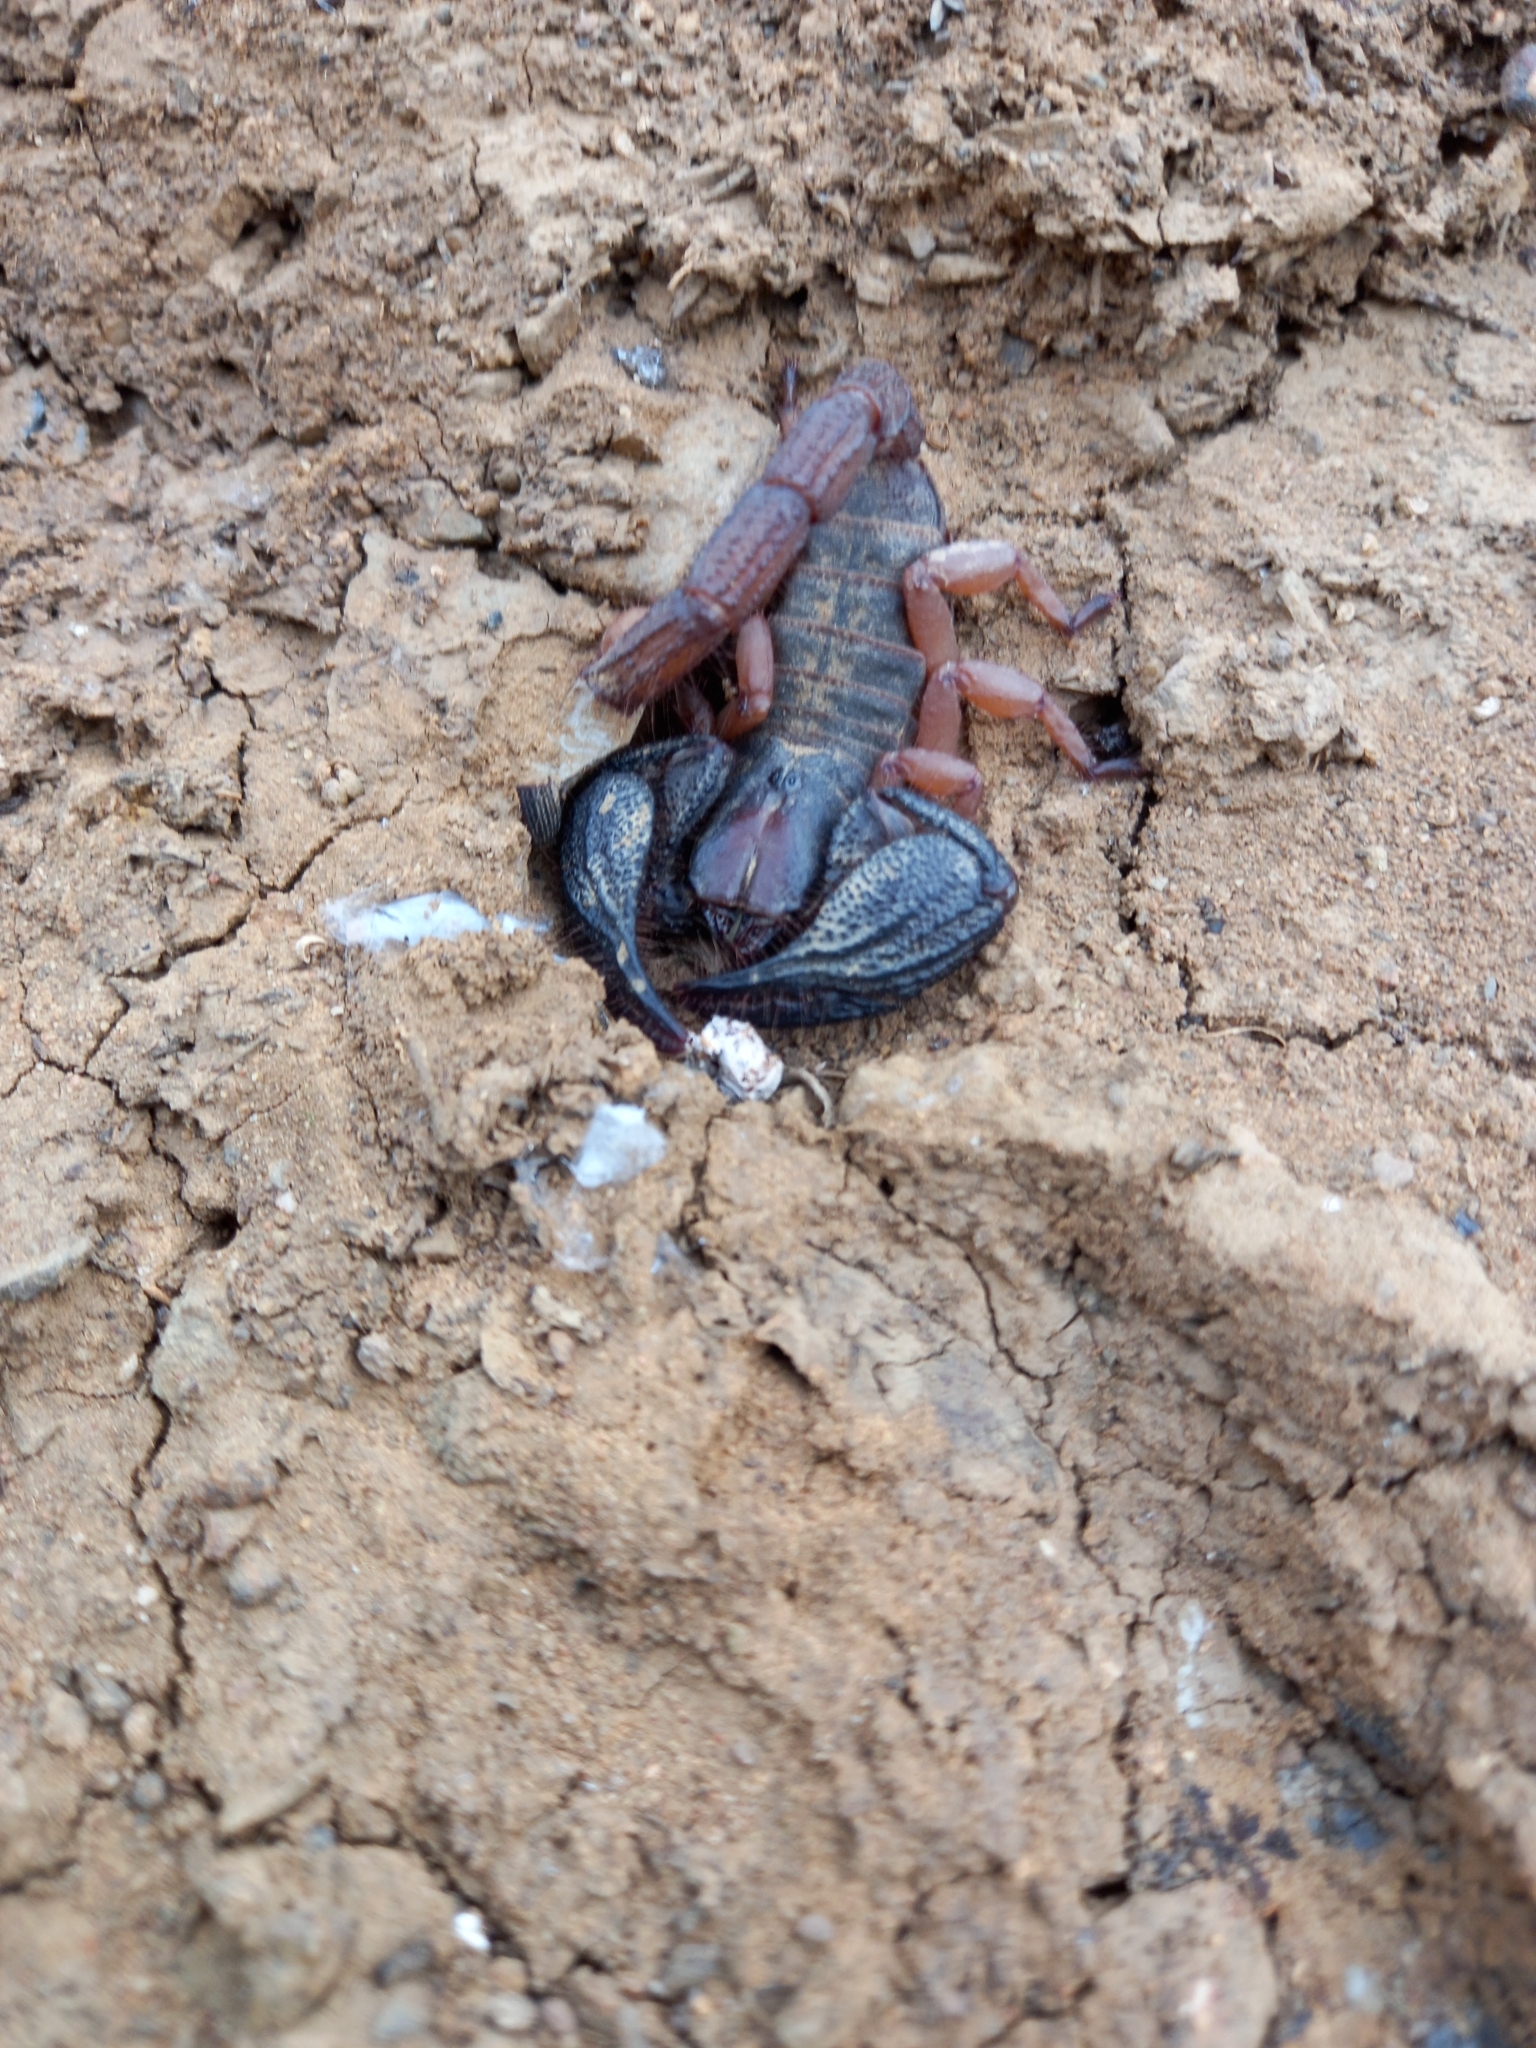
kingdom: Animalia
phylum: Arthropoda
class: Arachnida
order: Scorpiones
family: Scorpionidae
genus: Opistophthalmus
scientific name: Opistophthalmus latimanus
